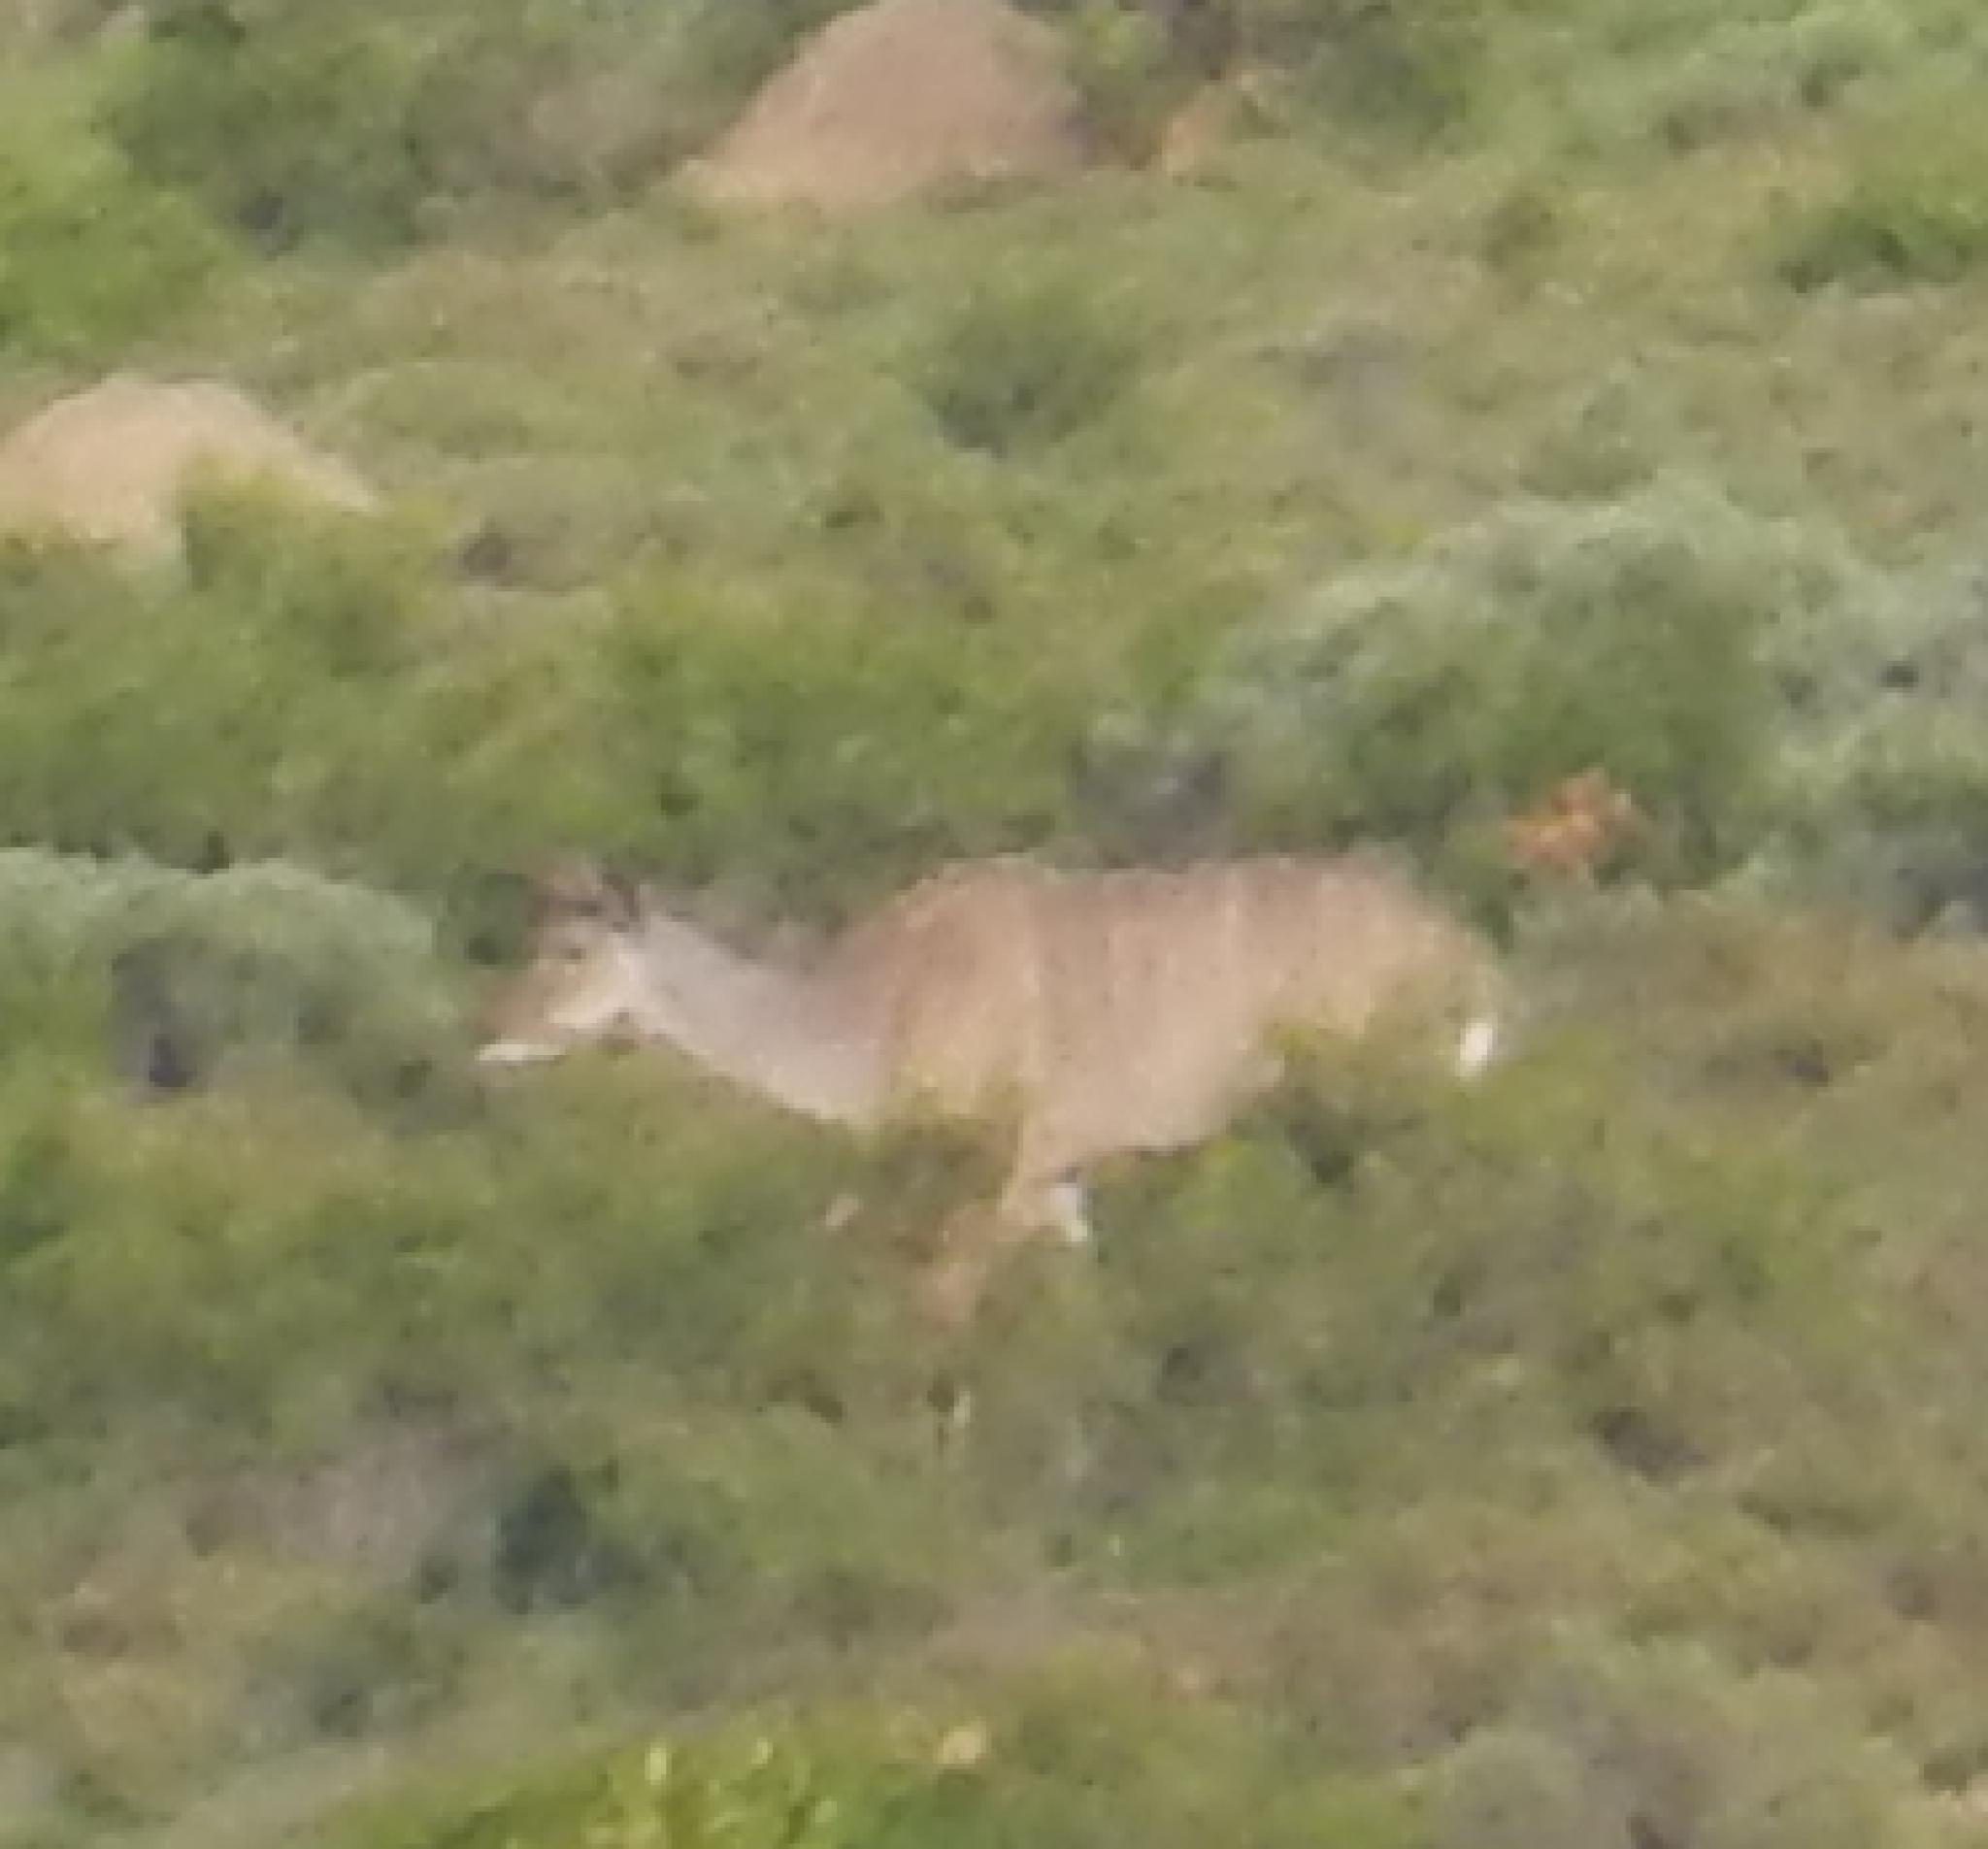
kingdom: Animalia
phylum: Chordata
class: Mammalia
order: Artiodactyla
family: Bovidae
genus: Tragelaphus
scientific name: Tragelaphus strepsiceros
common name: Greater kudu
